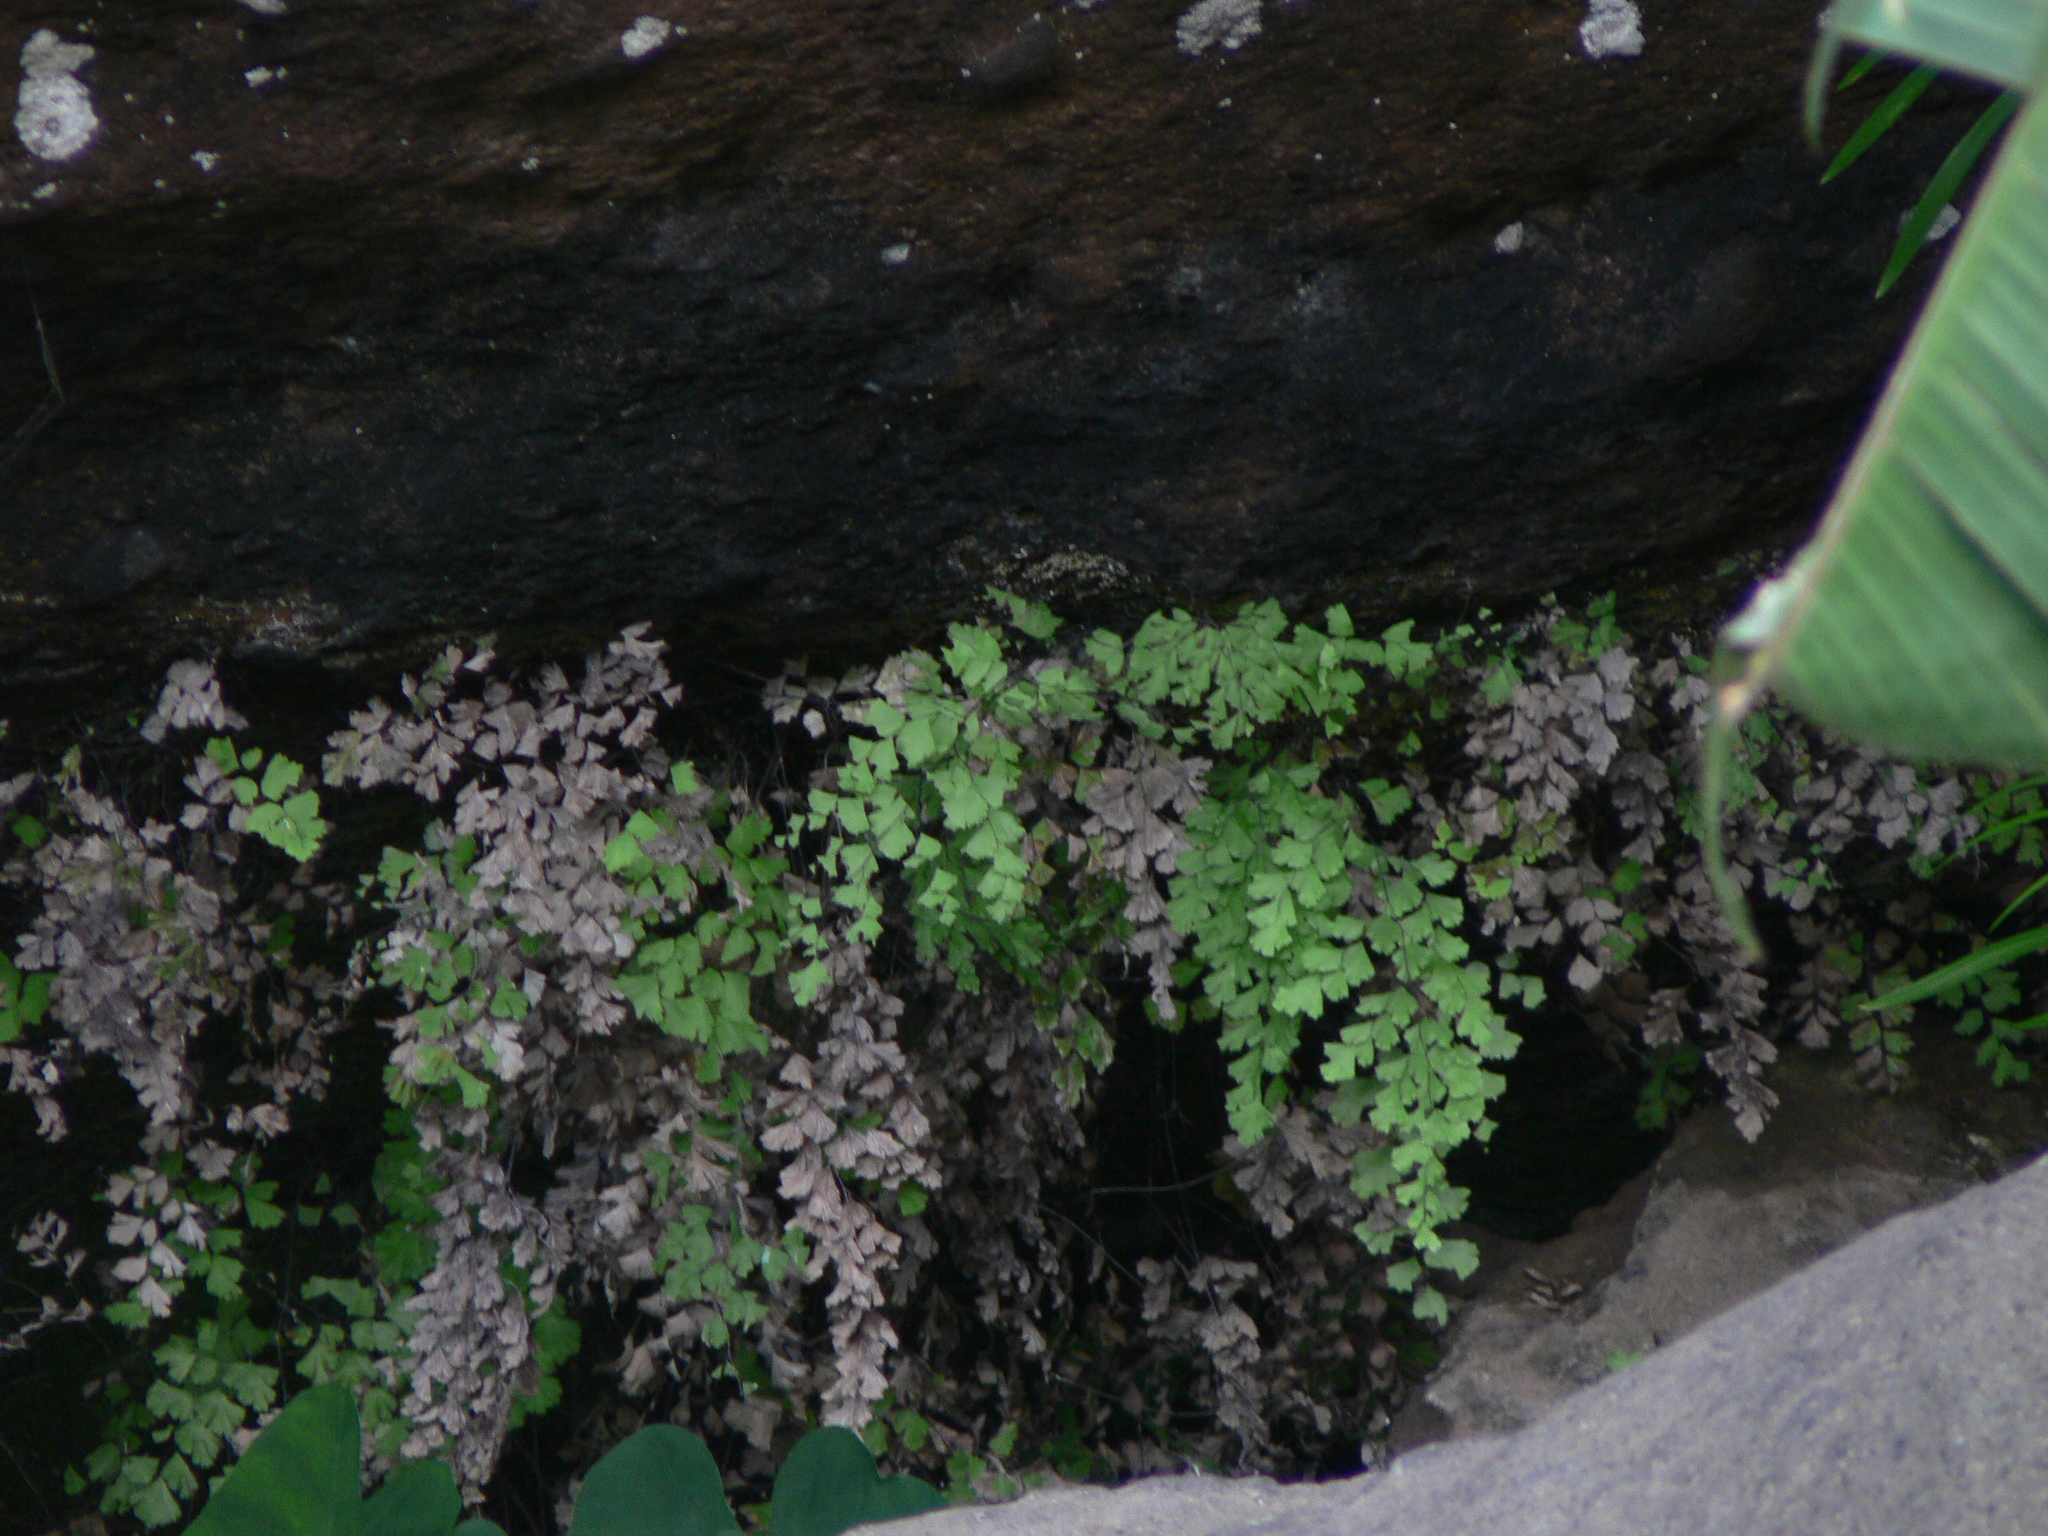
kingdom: Plantae
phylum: Tracheophyta
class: Polypodiopsida
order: Polypodiales
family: Pteridaceae
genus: Adiantum
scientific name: Adiantum capillus-veneris
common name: Maidenhair fern
